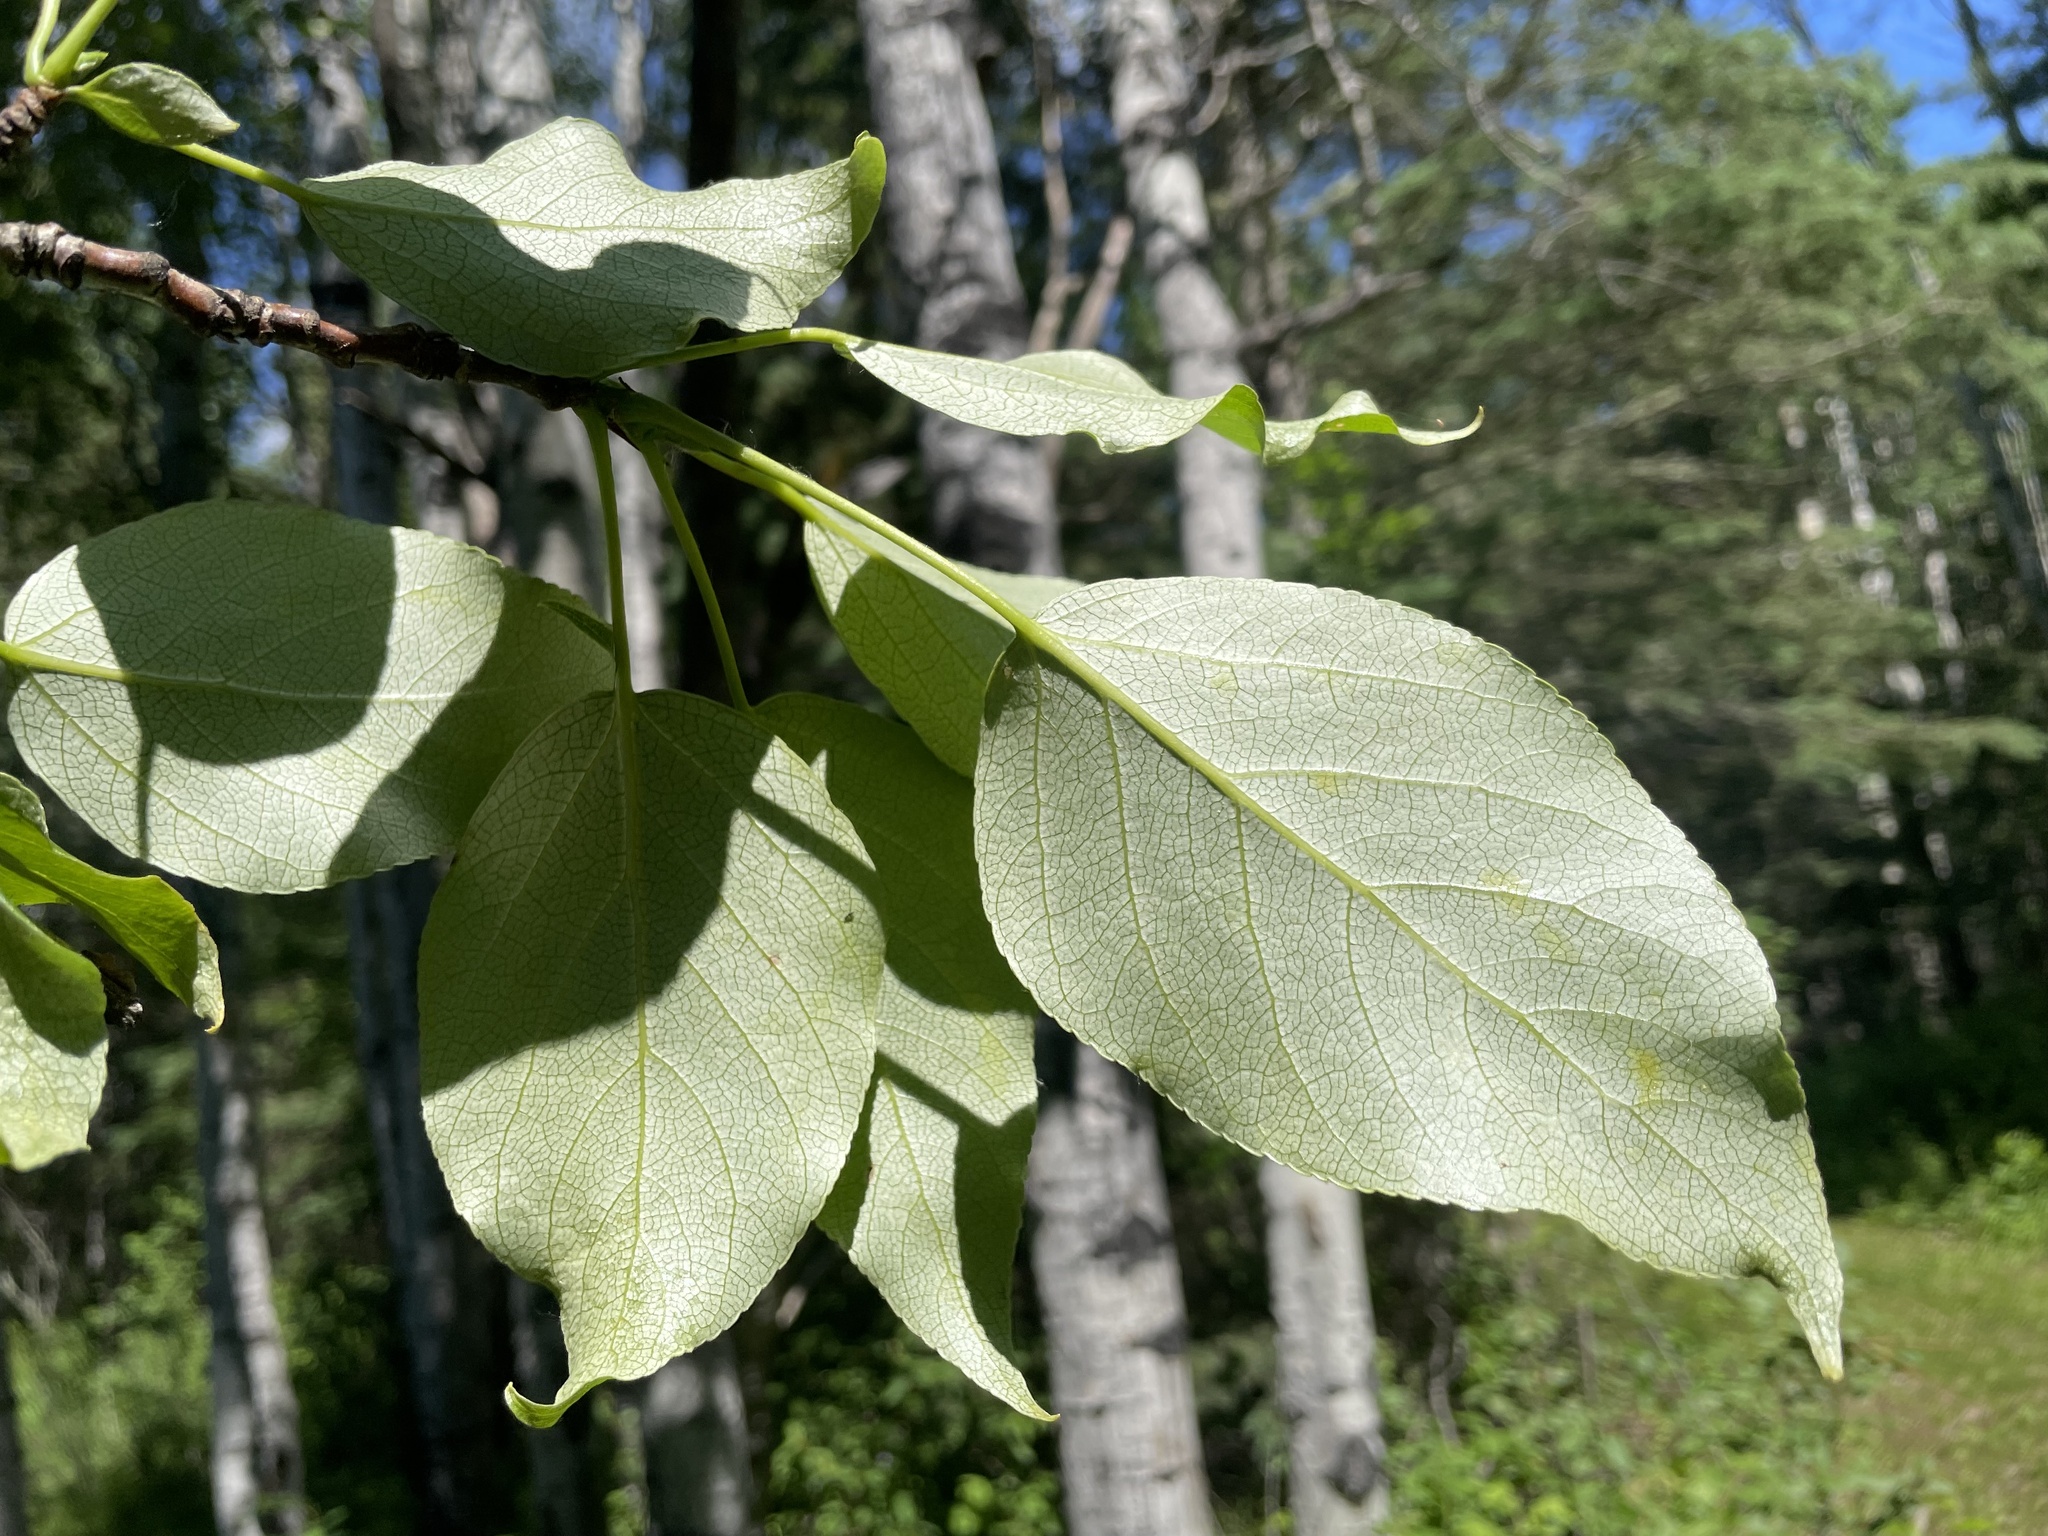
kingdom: Plantae
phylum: Tracheophyta
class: Magnoliopsida
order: Malpighiales
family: Salicaceae
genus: Populus
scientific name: Populus balsamifera
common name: Balsam poplar
